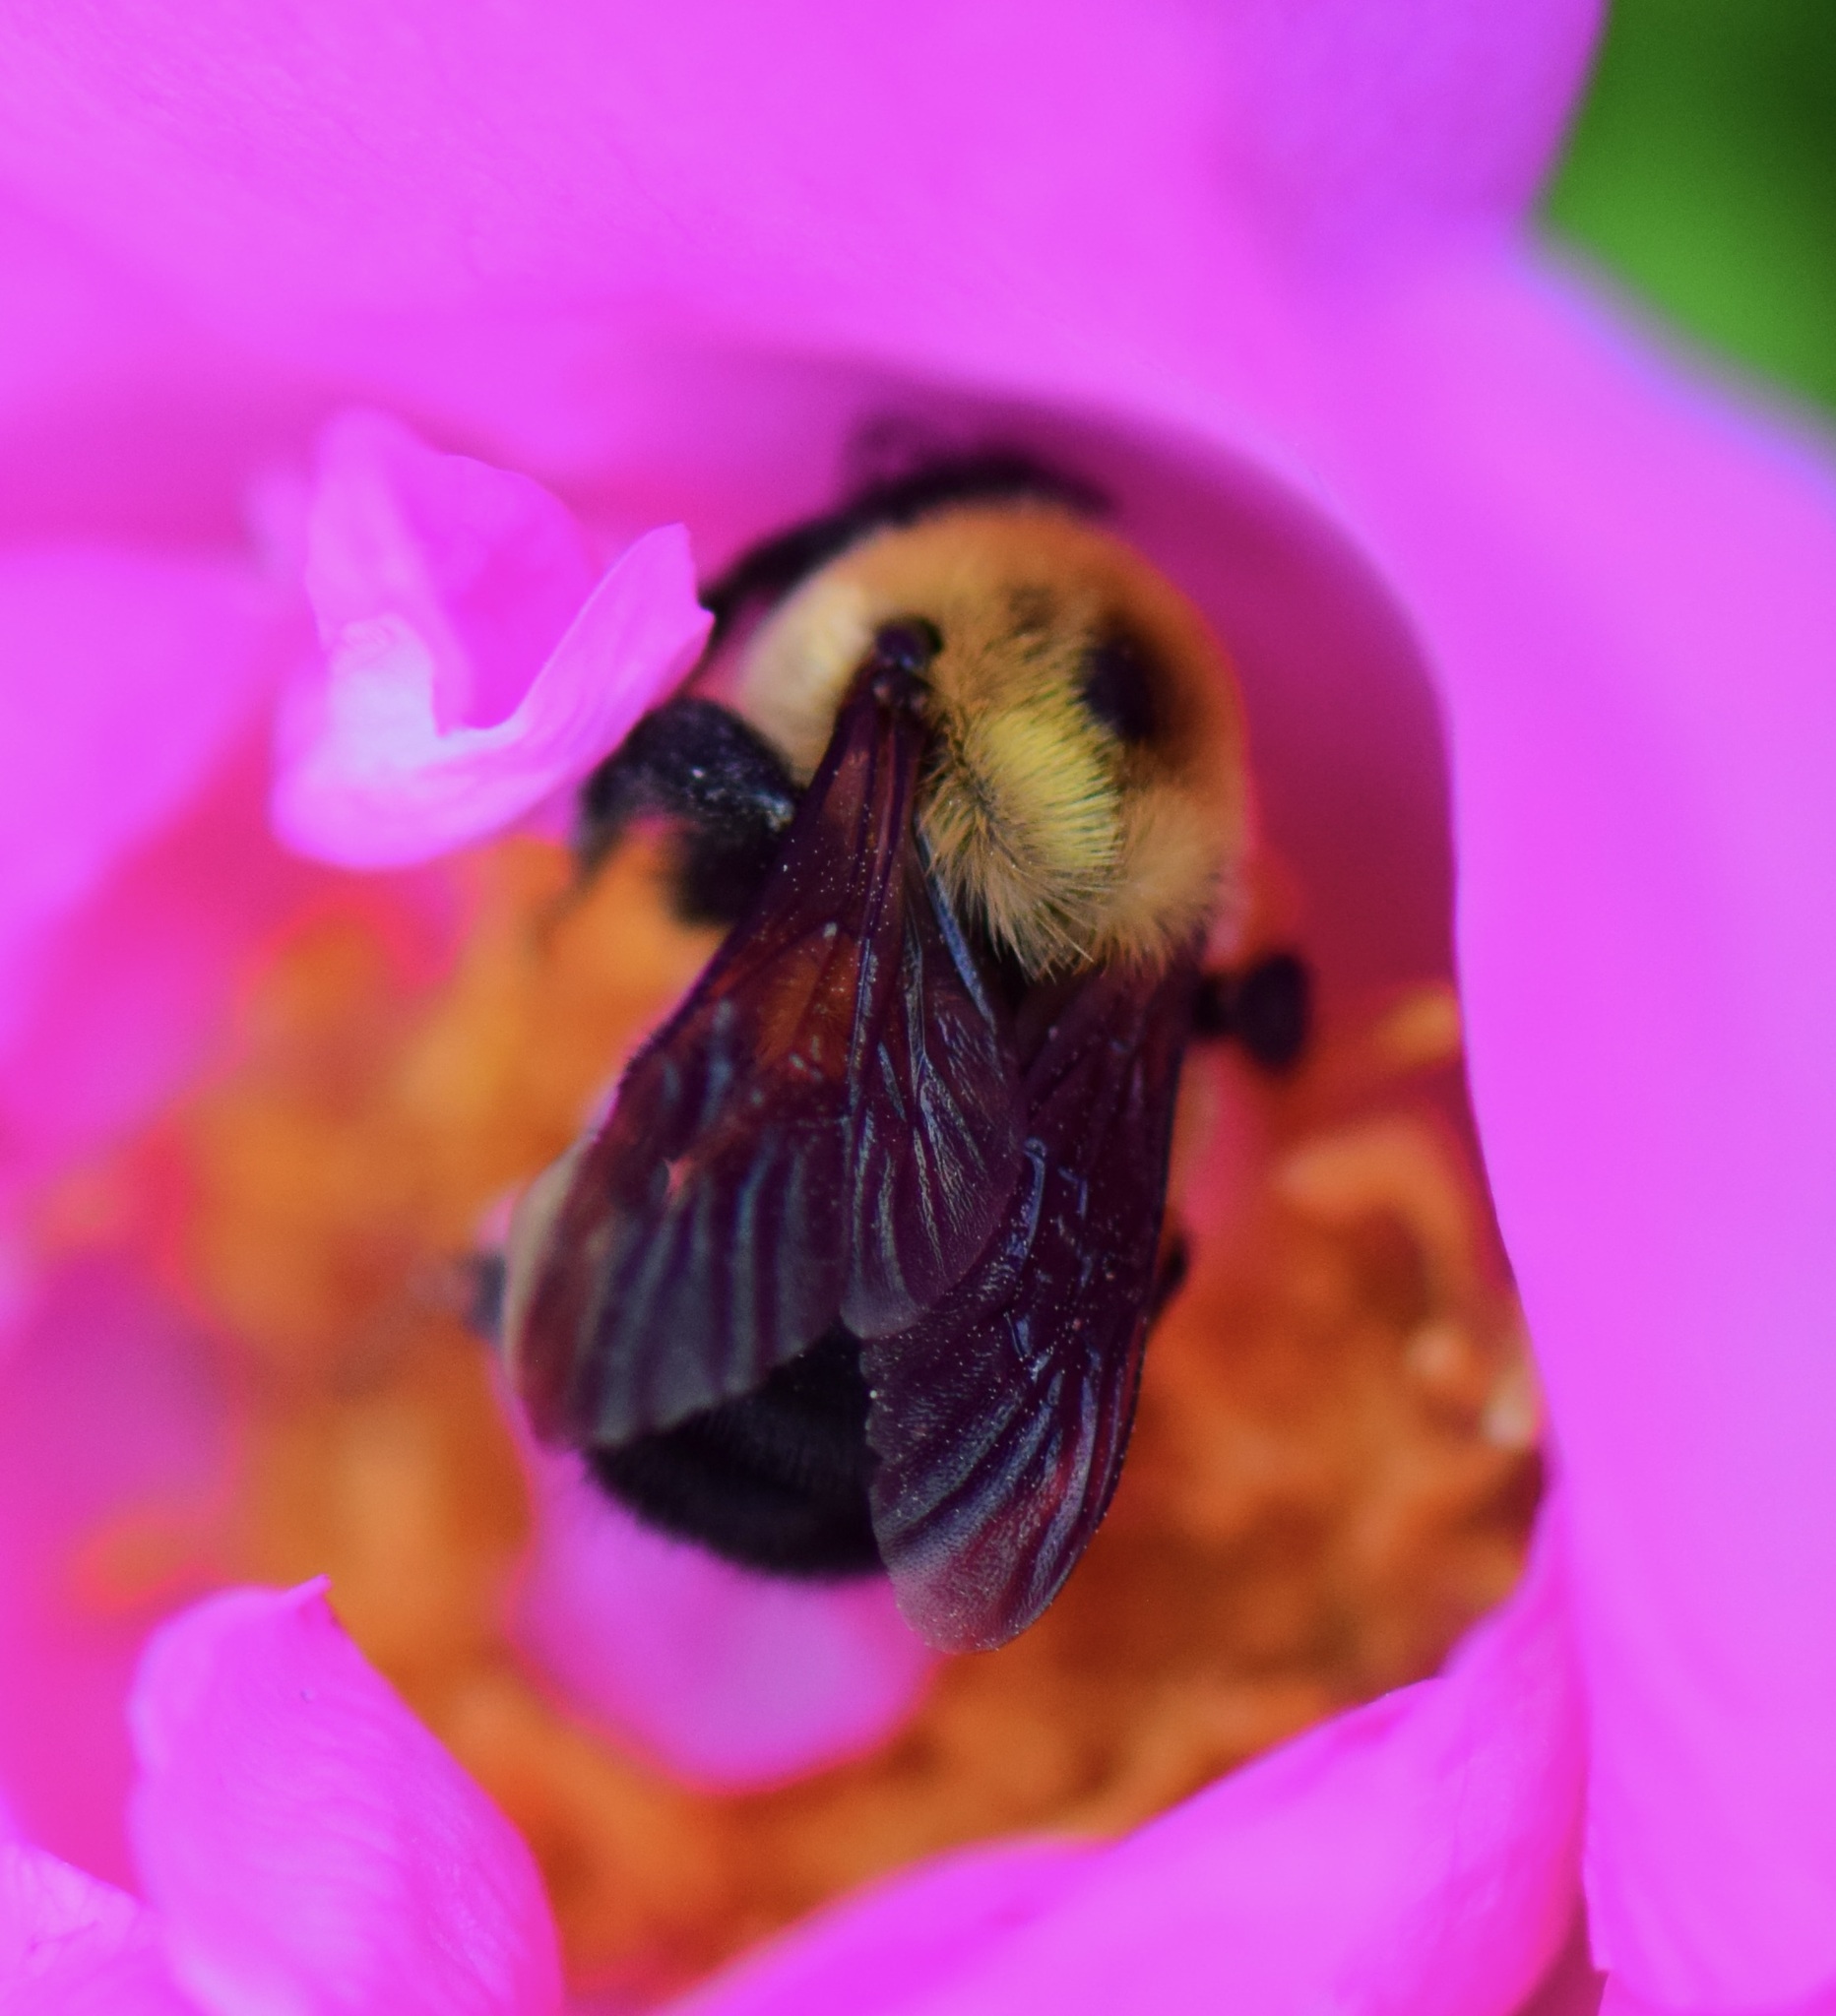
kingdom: Animalia
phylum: Arthropoda
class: Insecta
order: Hymenoptera
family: Apidae
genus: Bombus
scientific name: Bombus griseocollis
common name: Brown-belted bumble bee
